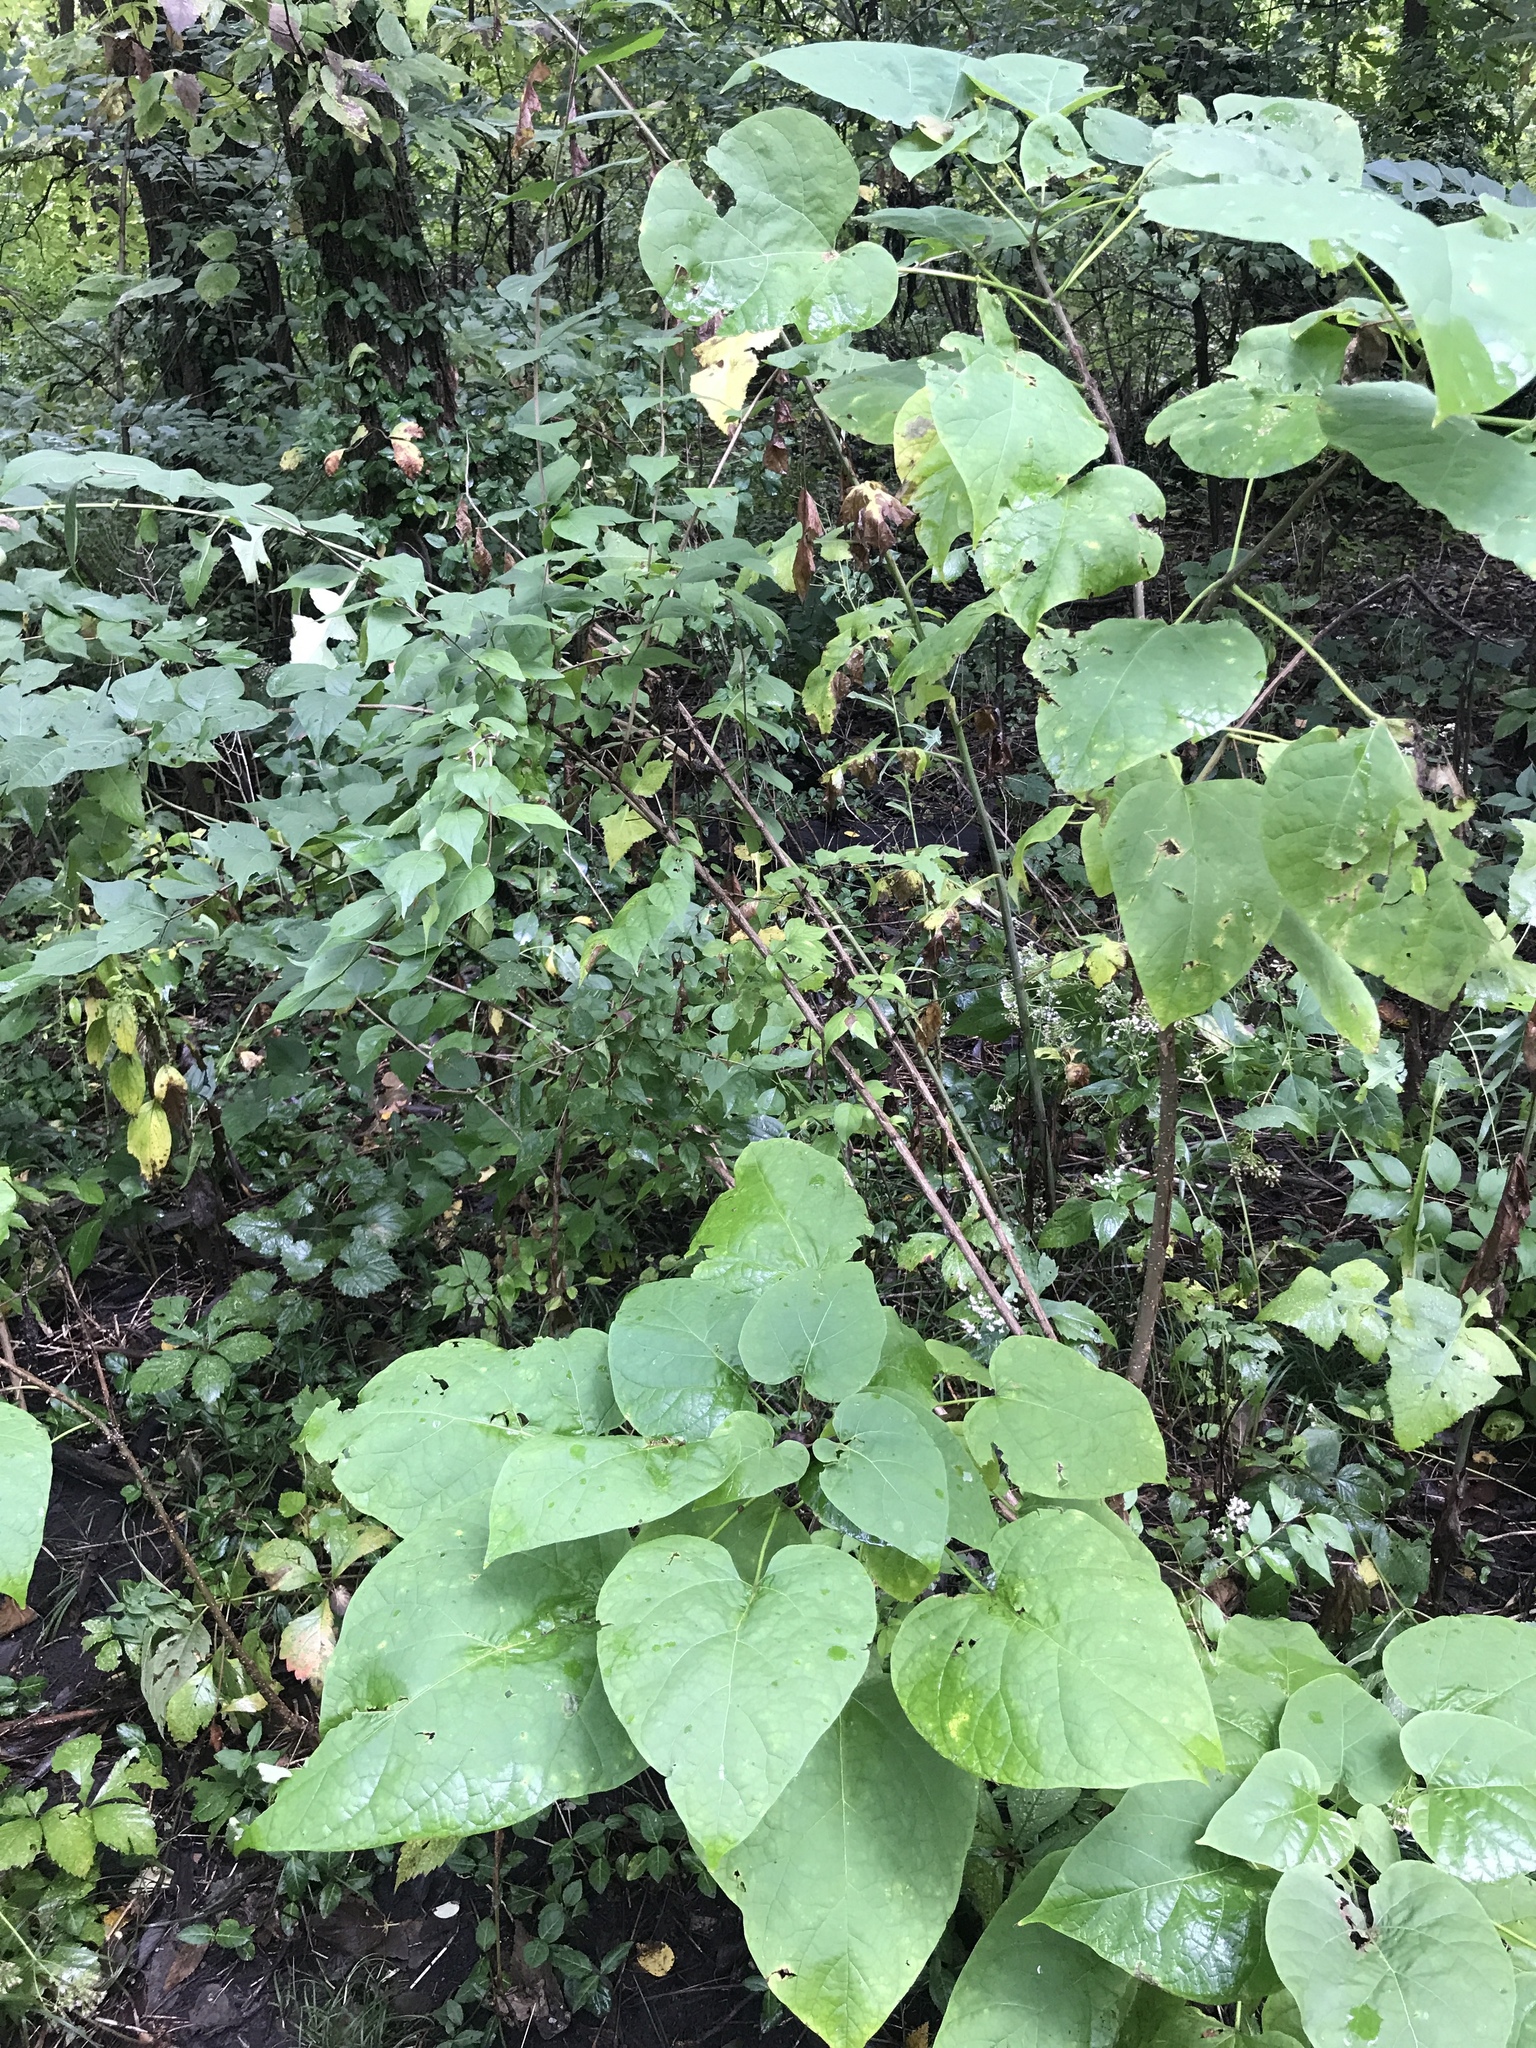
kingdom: Plantae
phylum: Tracheophyta
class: Magnoliopsida
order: Lamiales
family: Bignoniaceae
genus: Catalpa
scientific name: Catalpa speciosa
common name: Northern catalpa
